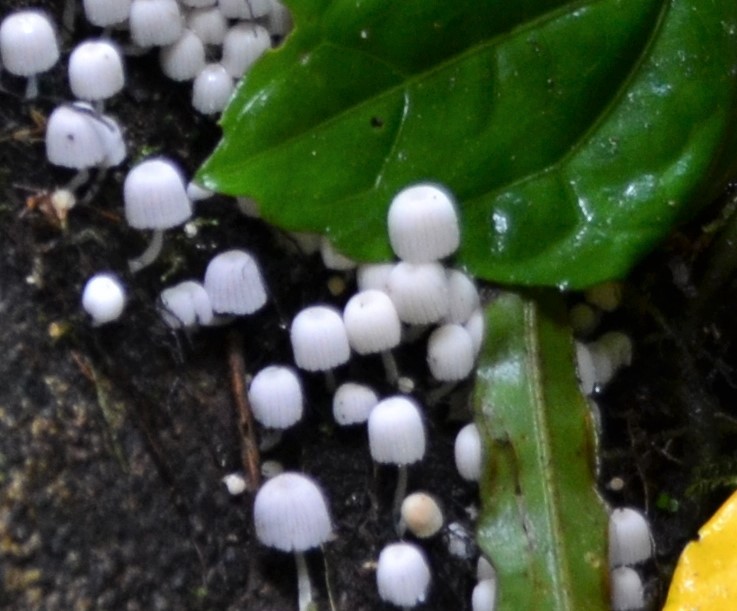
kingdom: Fungi
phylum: Basidiomycota
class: Agaricomycetes
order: Agaricales
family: Psathyrellaceae
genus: Coprinellus
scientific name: Coprinellus disseminatus
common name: Fairies' bonnets
